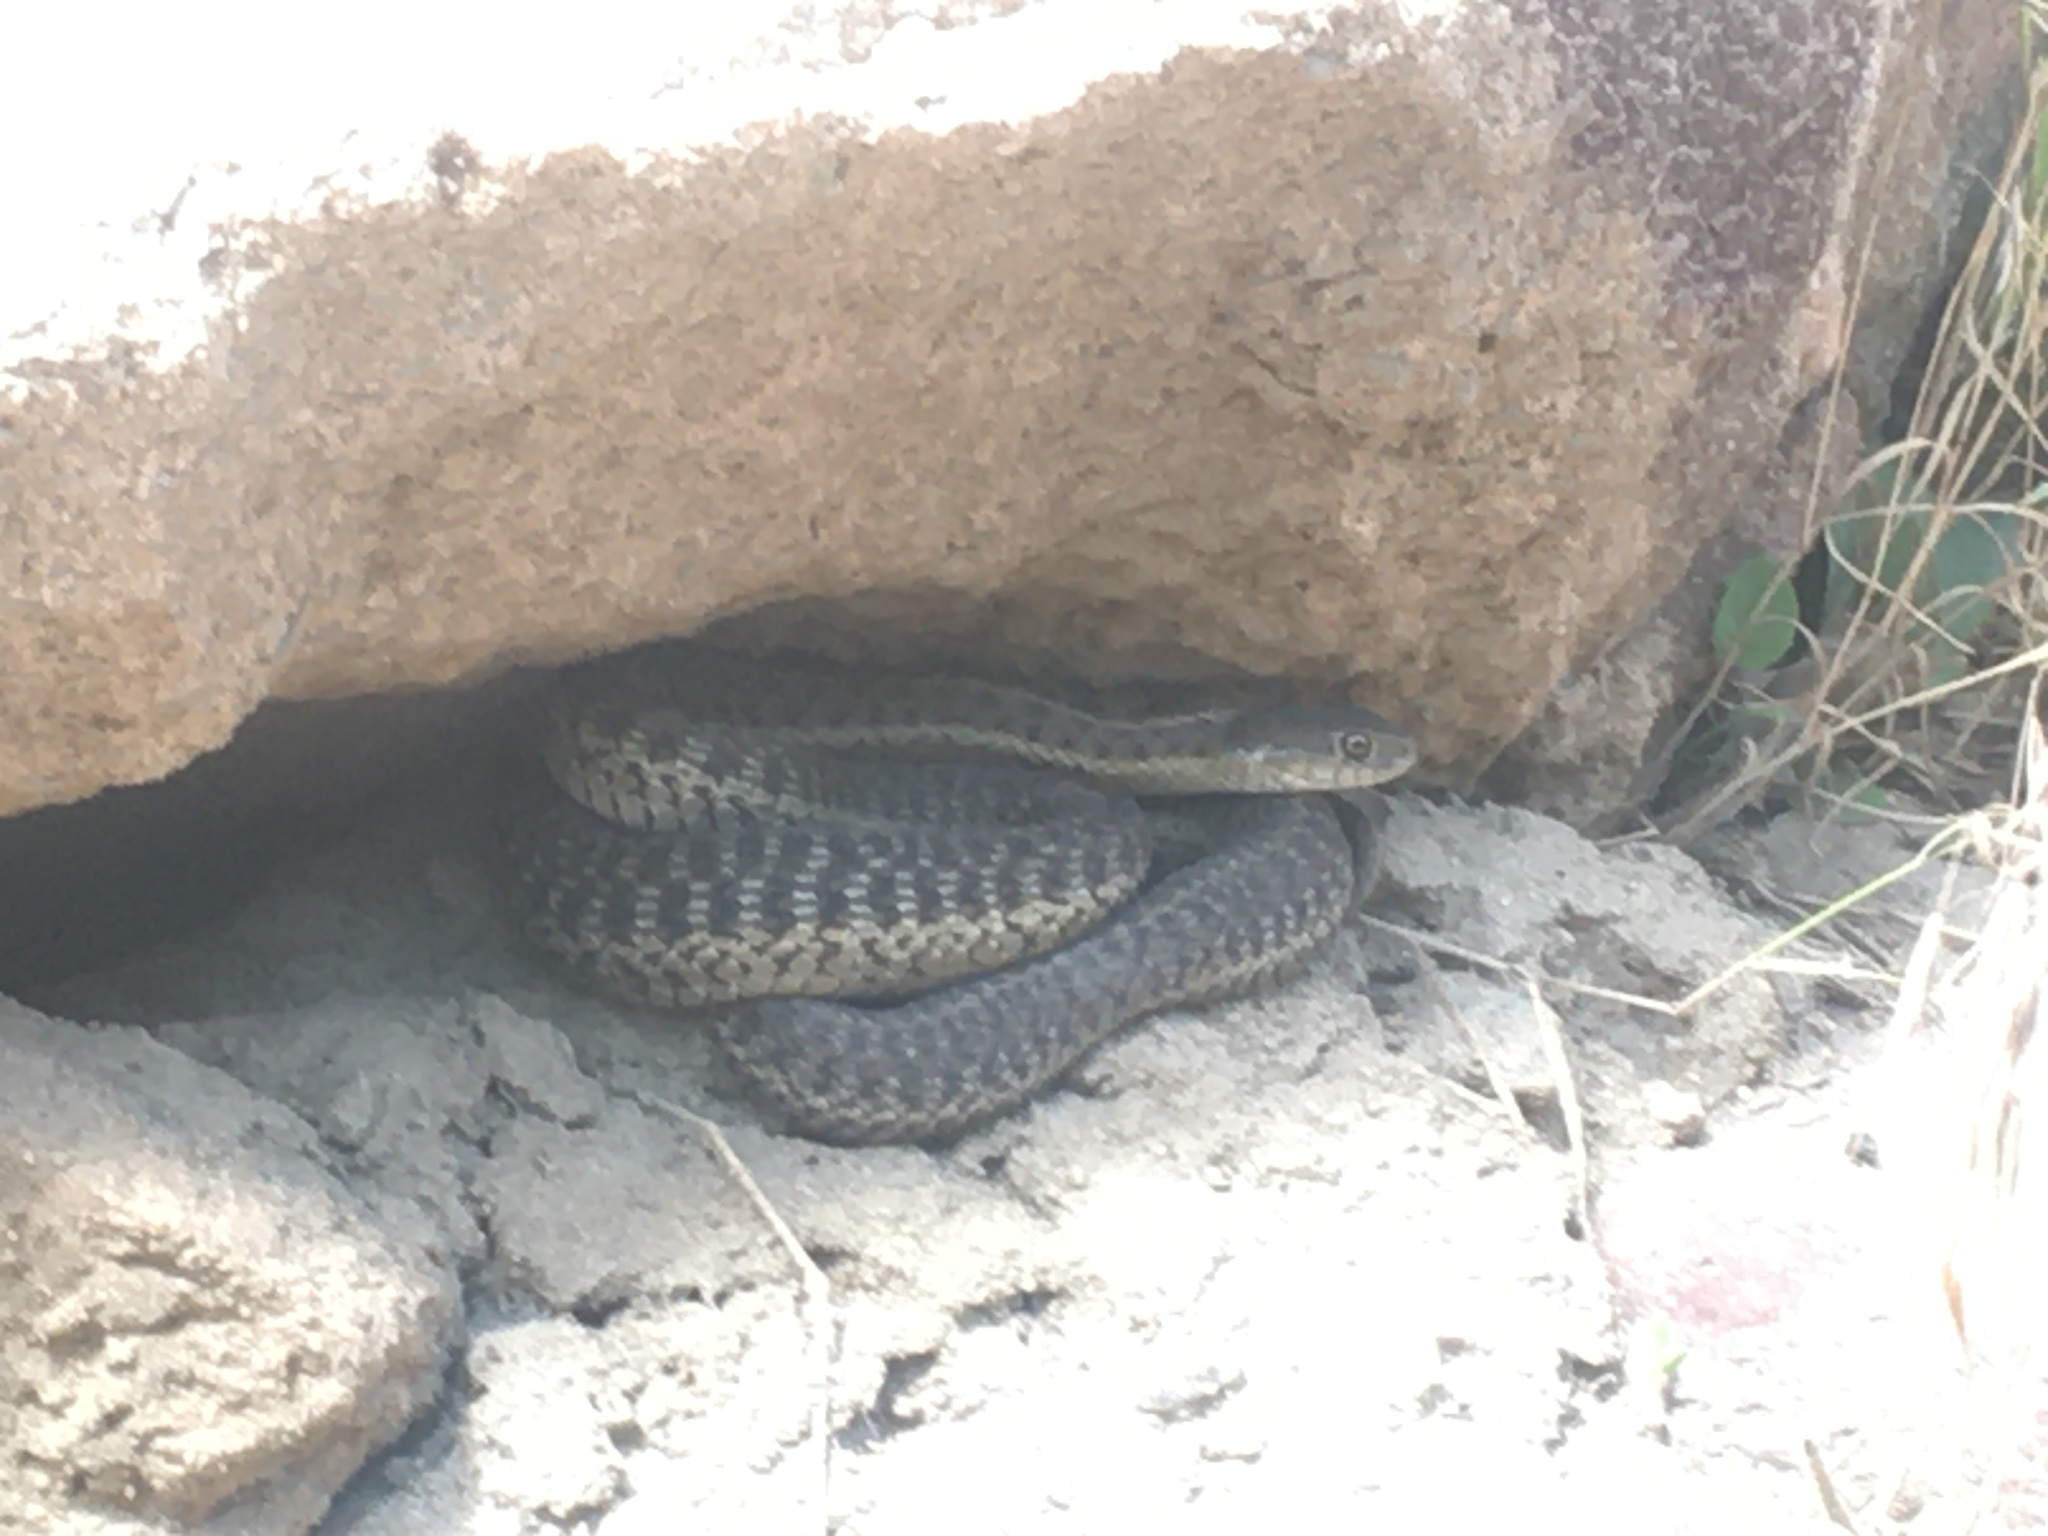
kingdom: Animalia
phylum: Chordata
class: Squamata
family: Colubridae
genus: Thamnophis
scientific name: Thamnophis elegans
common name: Western terrestrial garter snake
